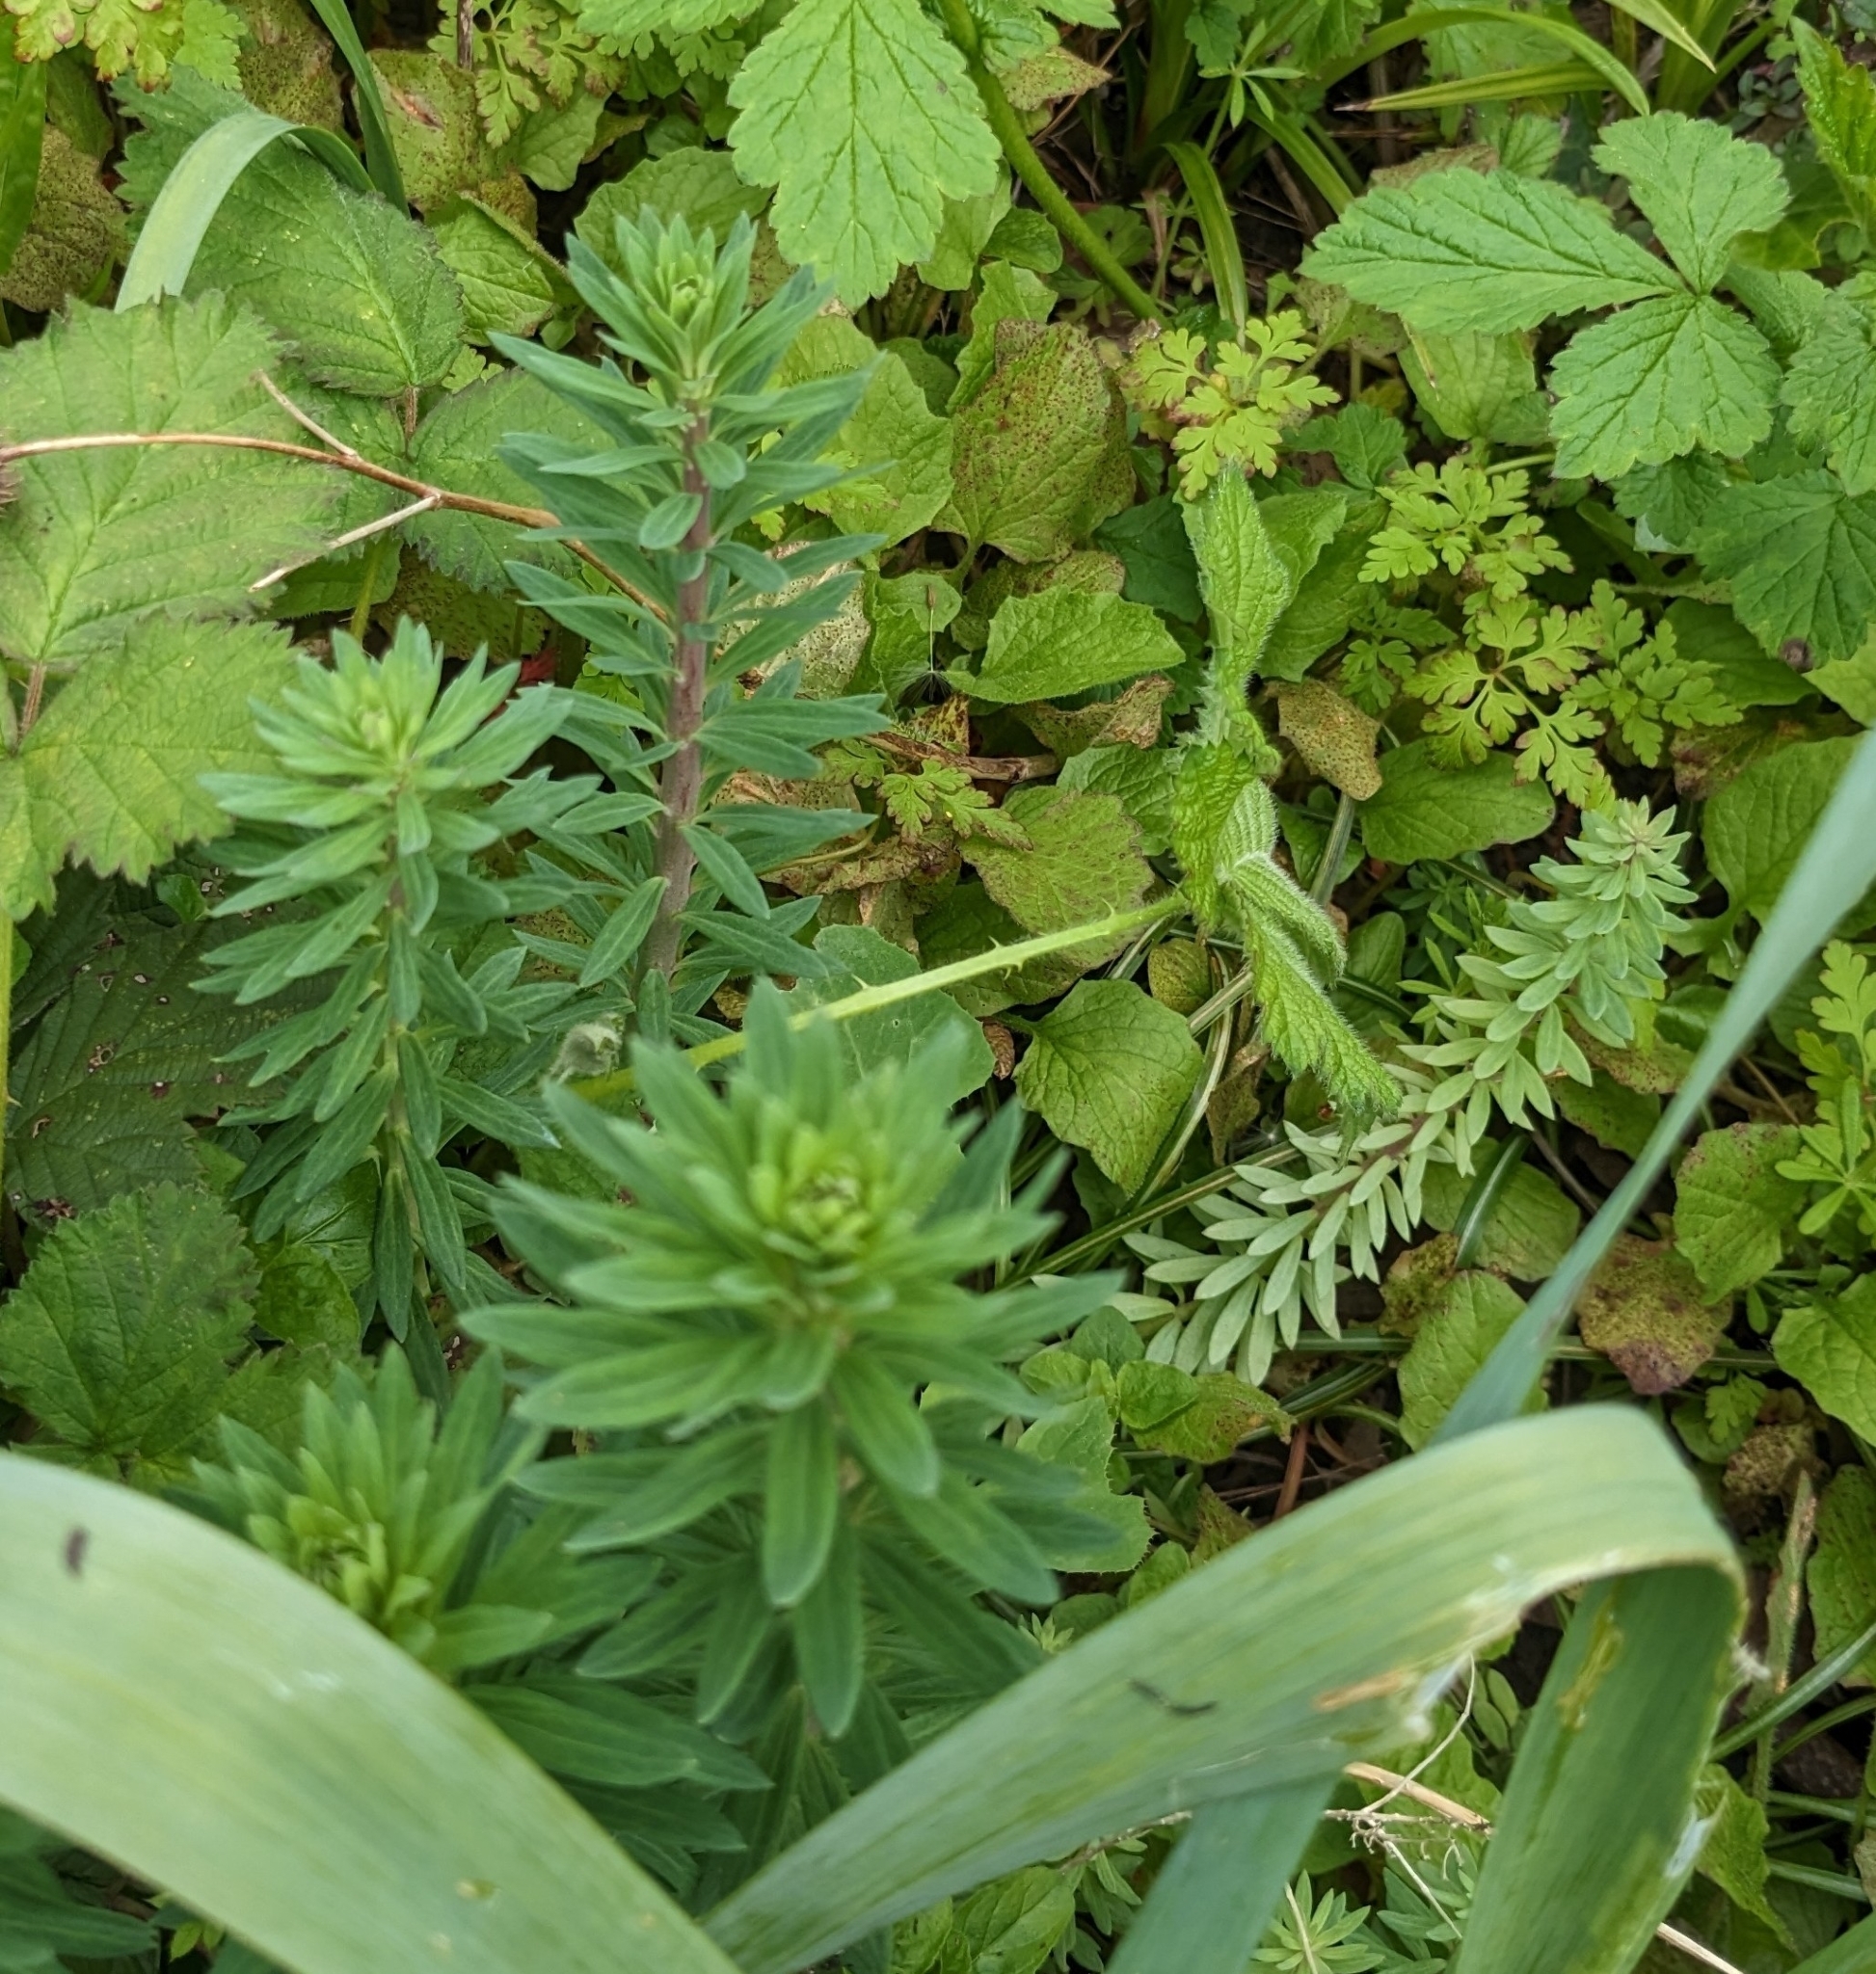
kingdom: Plantae
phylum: Tracheophyta
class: Magnoliopsida
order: Lamiales
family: Plantaginaceae
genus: Linaria
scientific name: Linaria purpurea
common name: Purple toadflax
